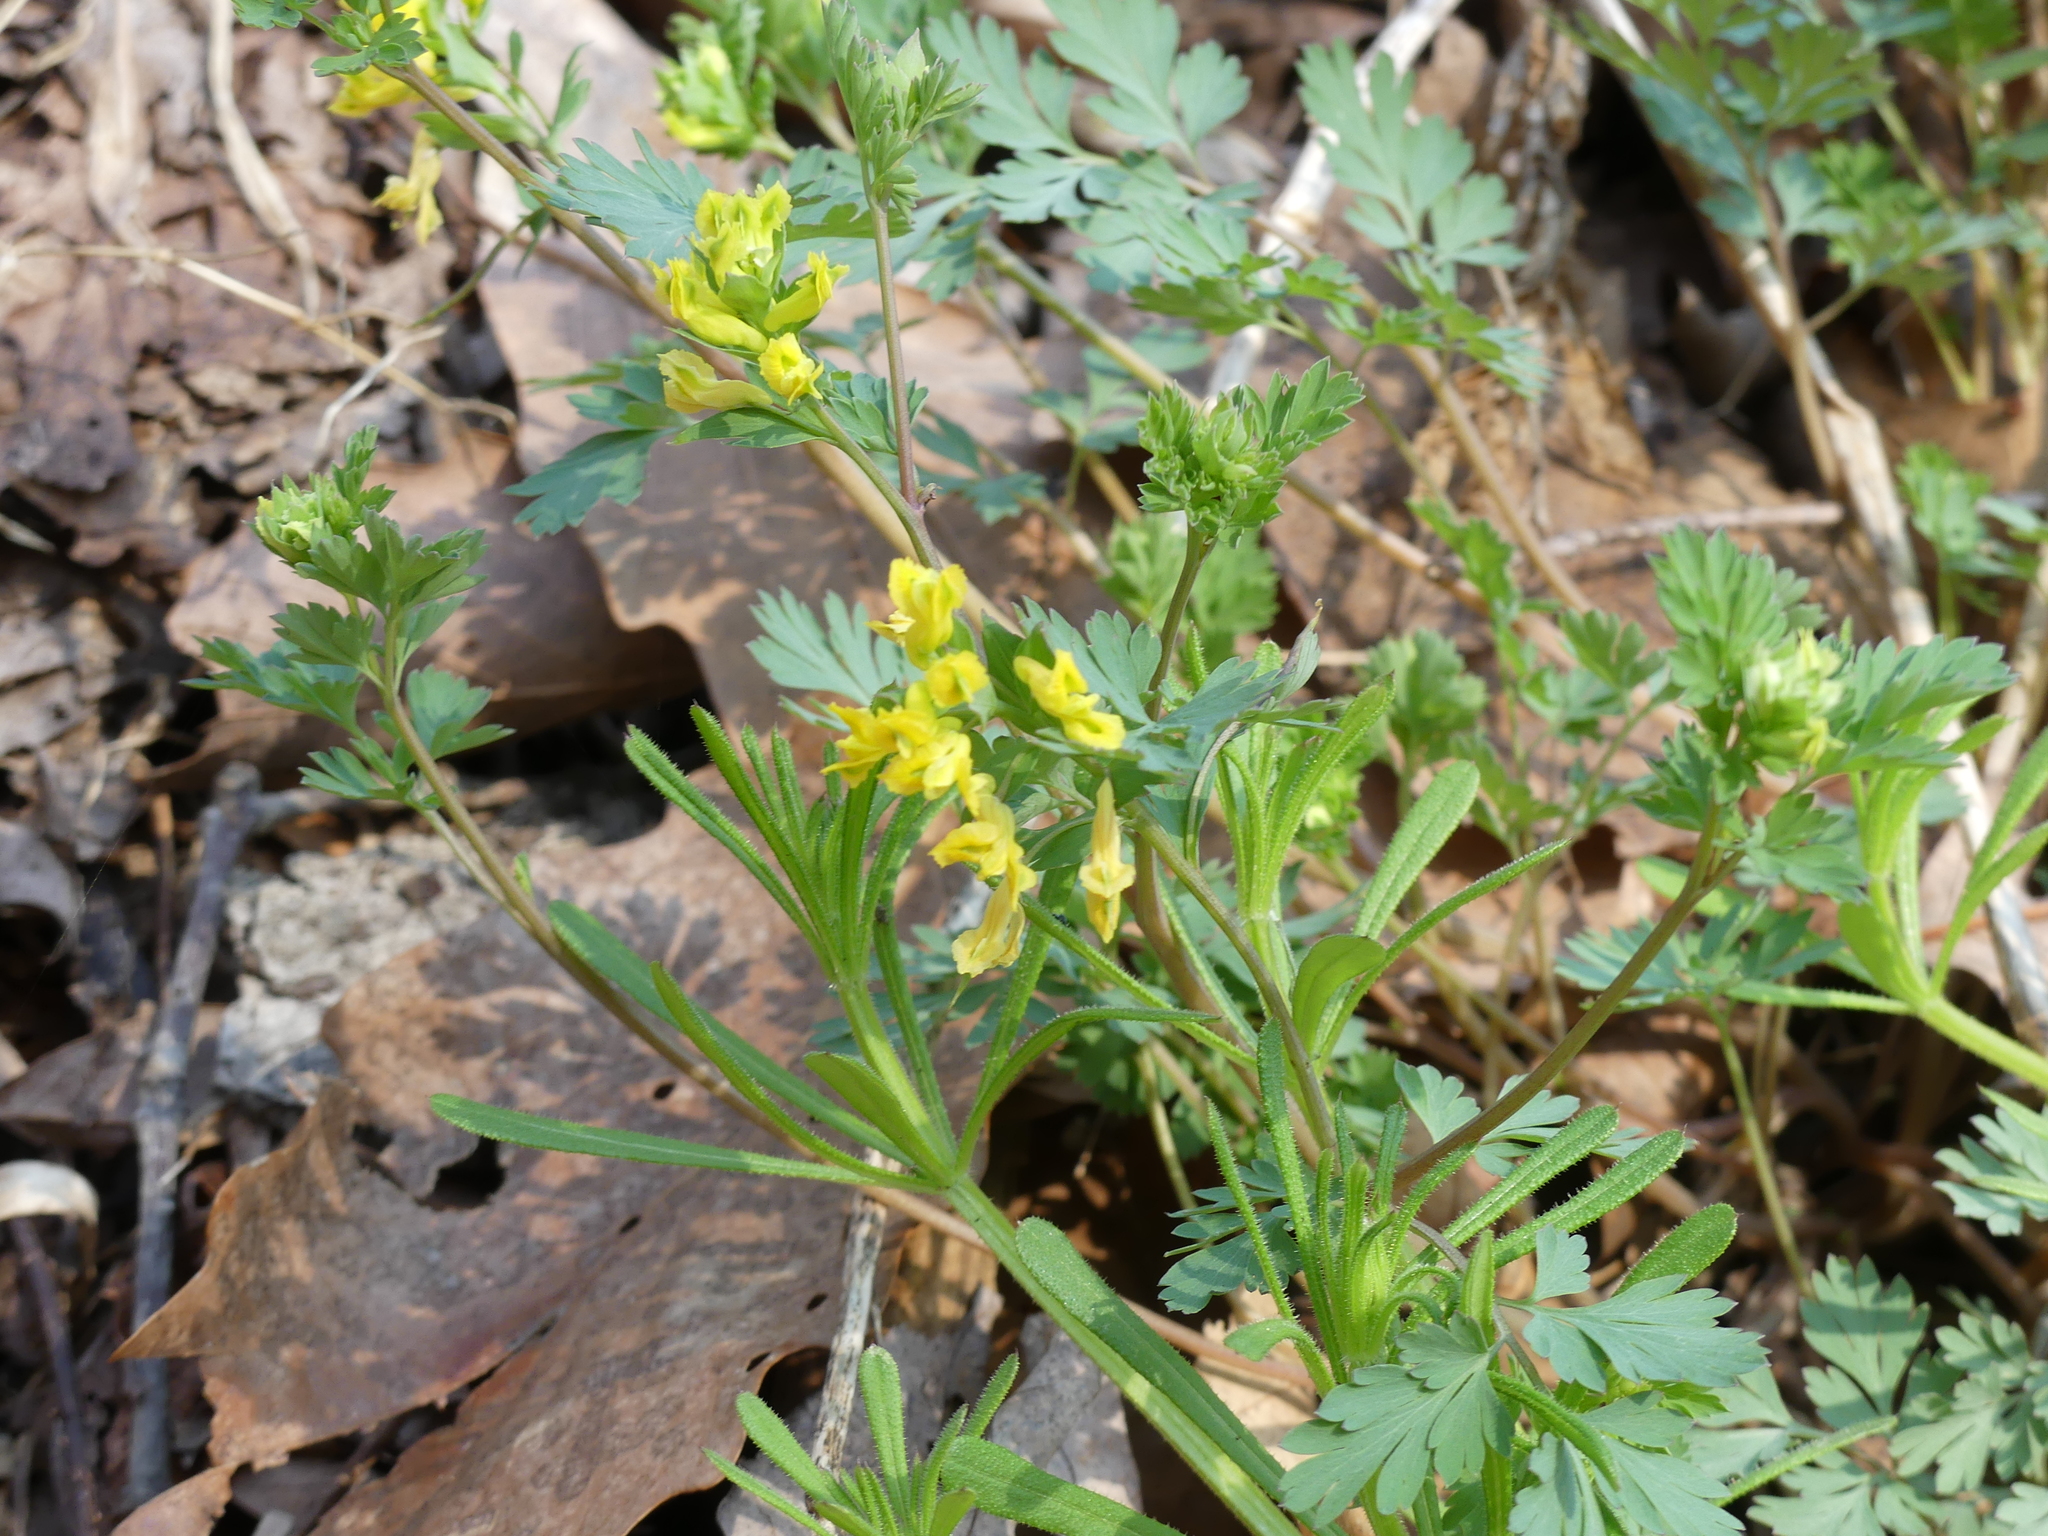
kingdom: Plantae
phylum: Tracheophyta
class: Magnoliopsida
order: Ranunculales
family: Papaveraceae
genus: Corydalis
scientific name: Corydalis flavula
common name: Yellow corydalis
